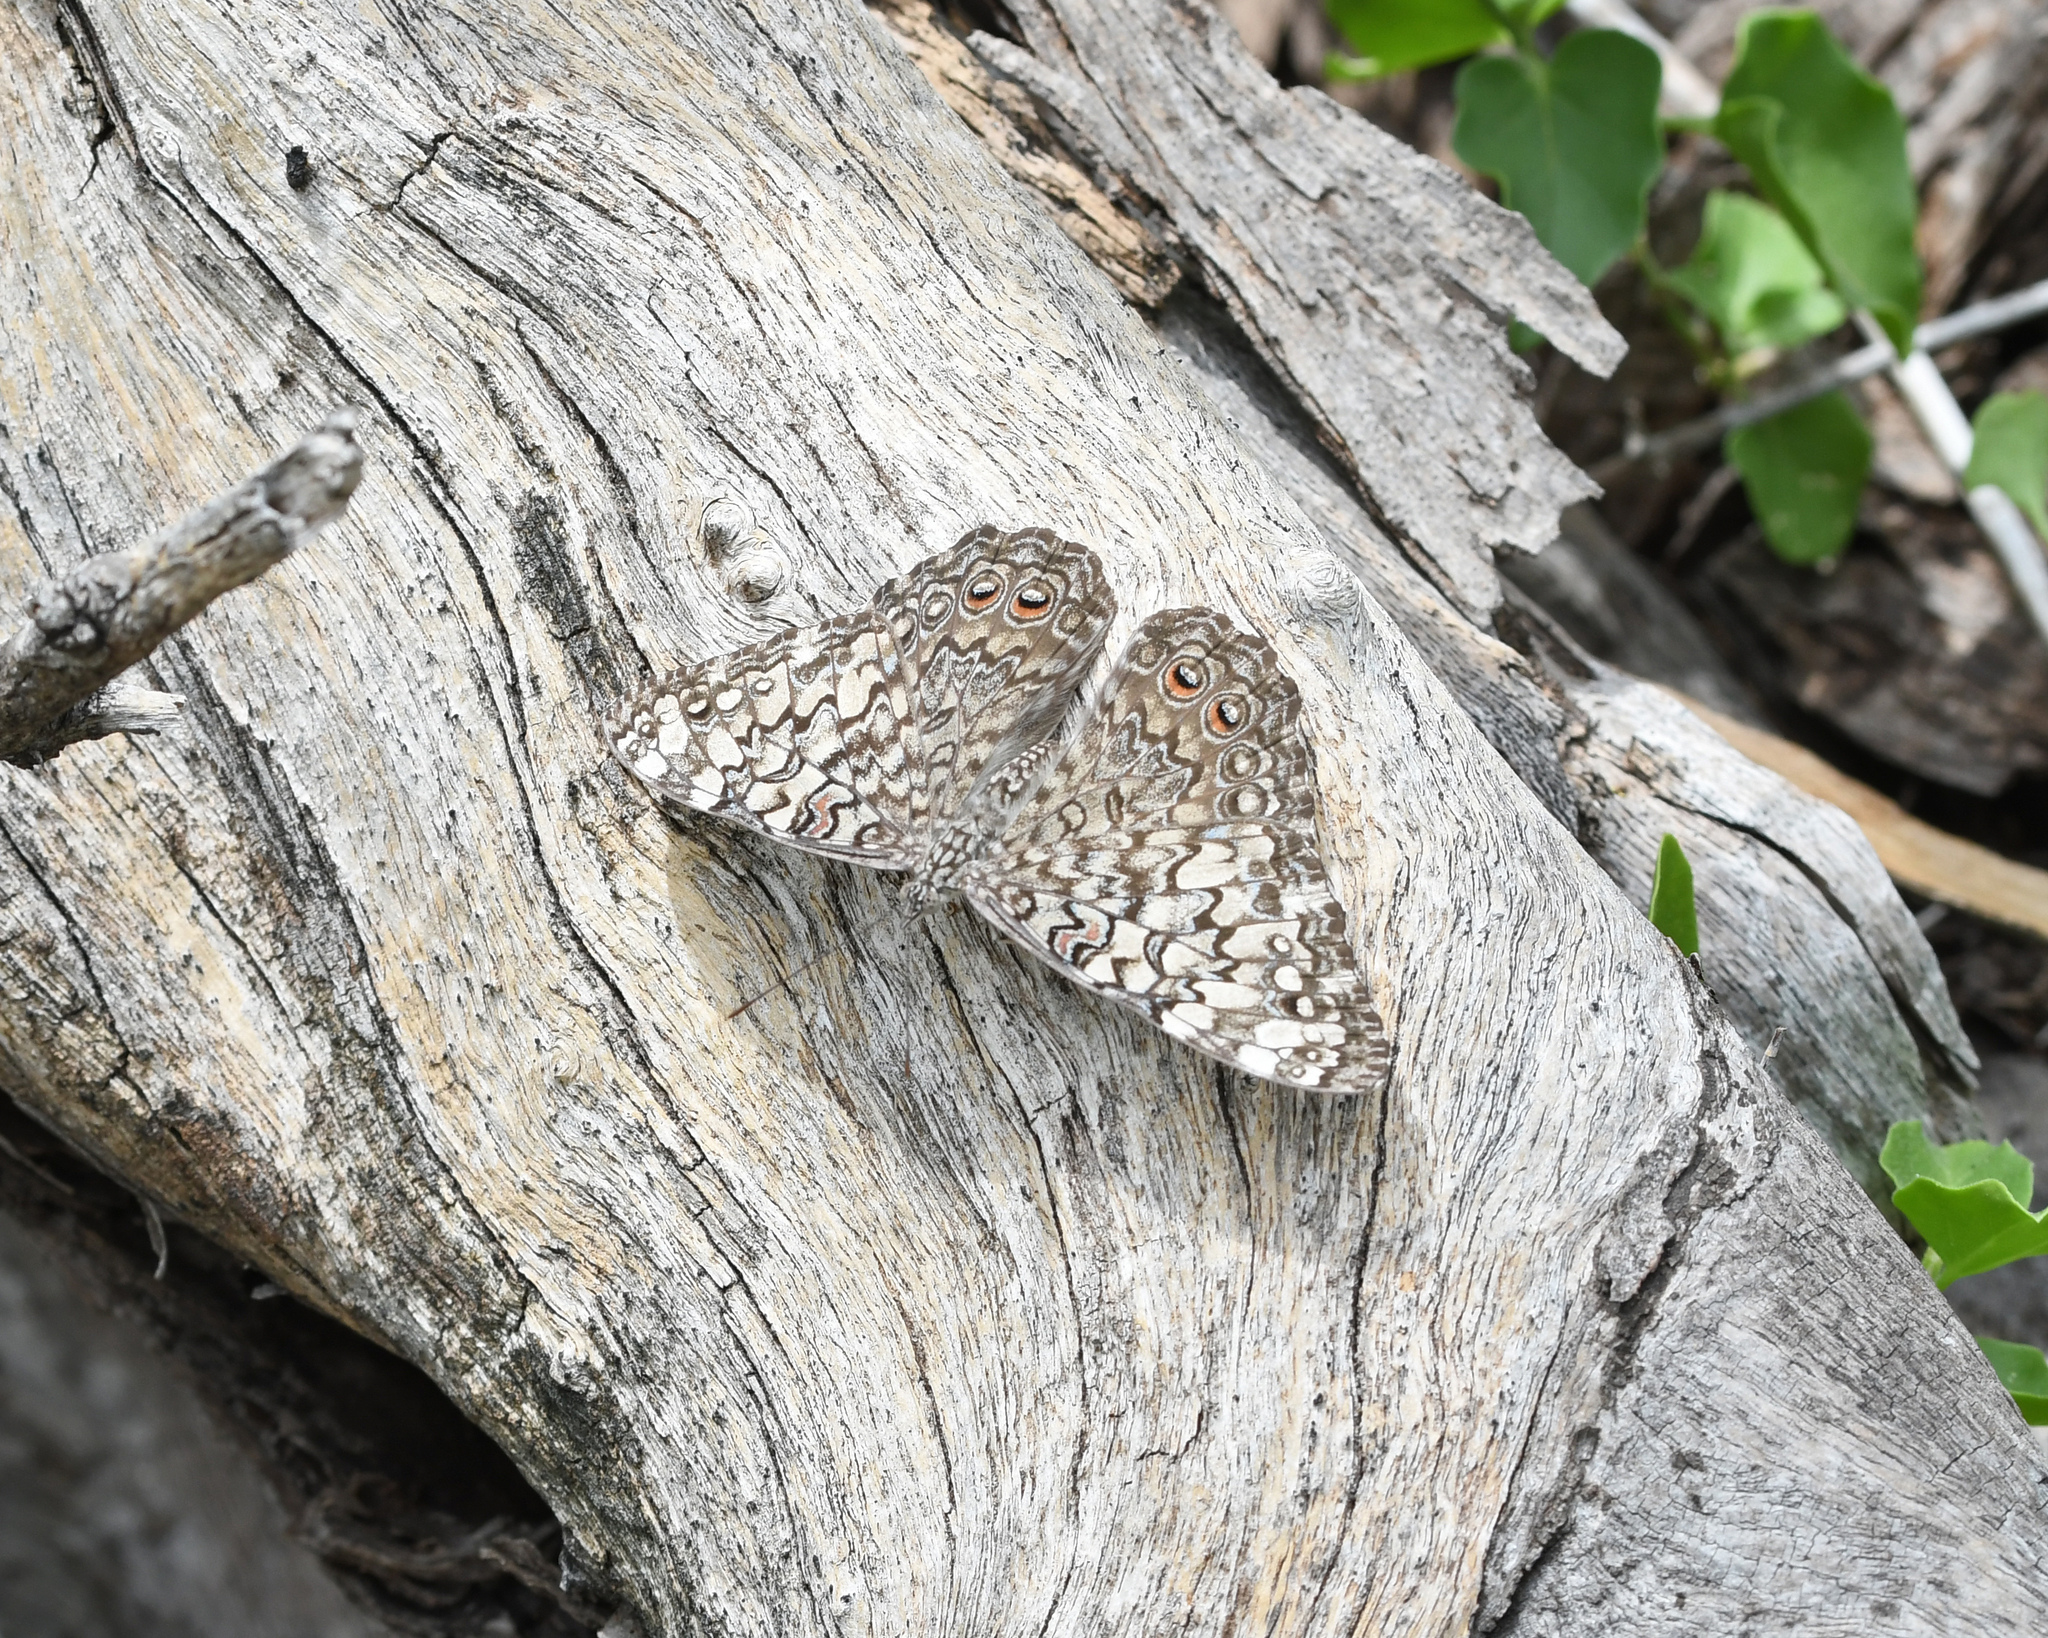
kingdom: Animalia
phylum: Arthropoda
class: Insecta
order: Lepidoptera
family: Nymphalidae
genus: Hamadryas
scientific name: Hamadryas februa
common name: Gray cracker
